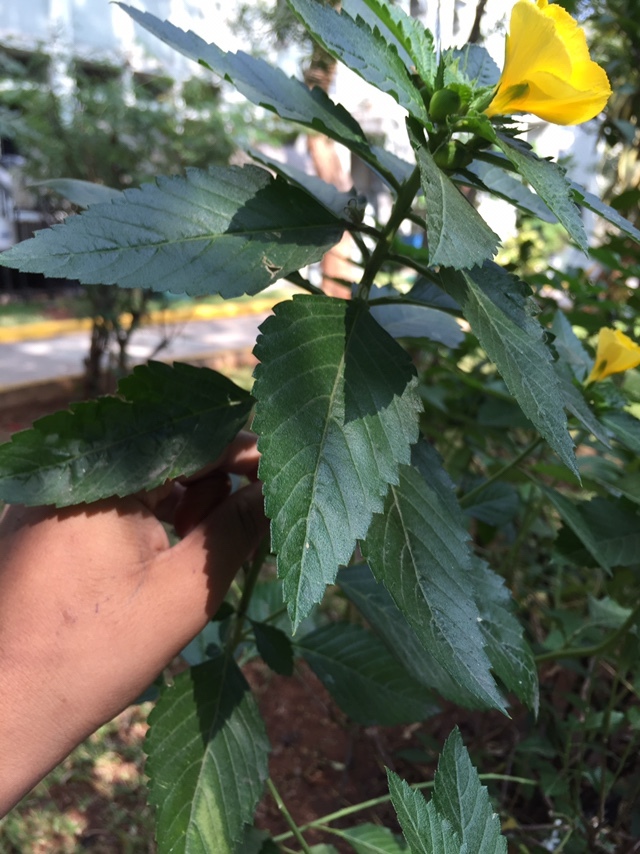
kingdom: Plantae
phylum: Tracheophyta
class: Magnoliopsida
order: Malpighiales
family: Turneraceae
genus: Turnera
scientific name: Turnera ulmifolia
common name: Ramgoat dashalong
